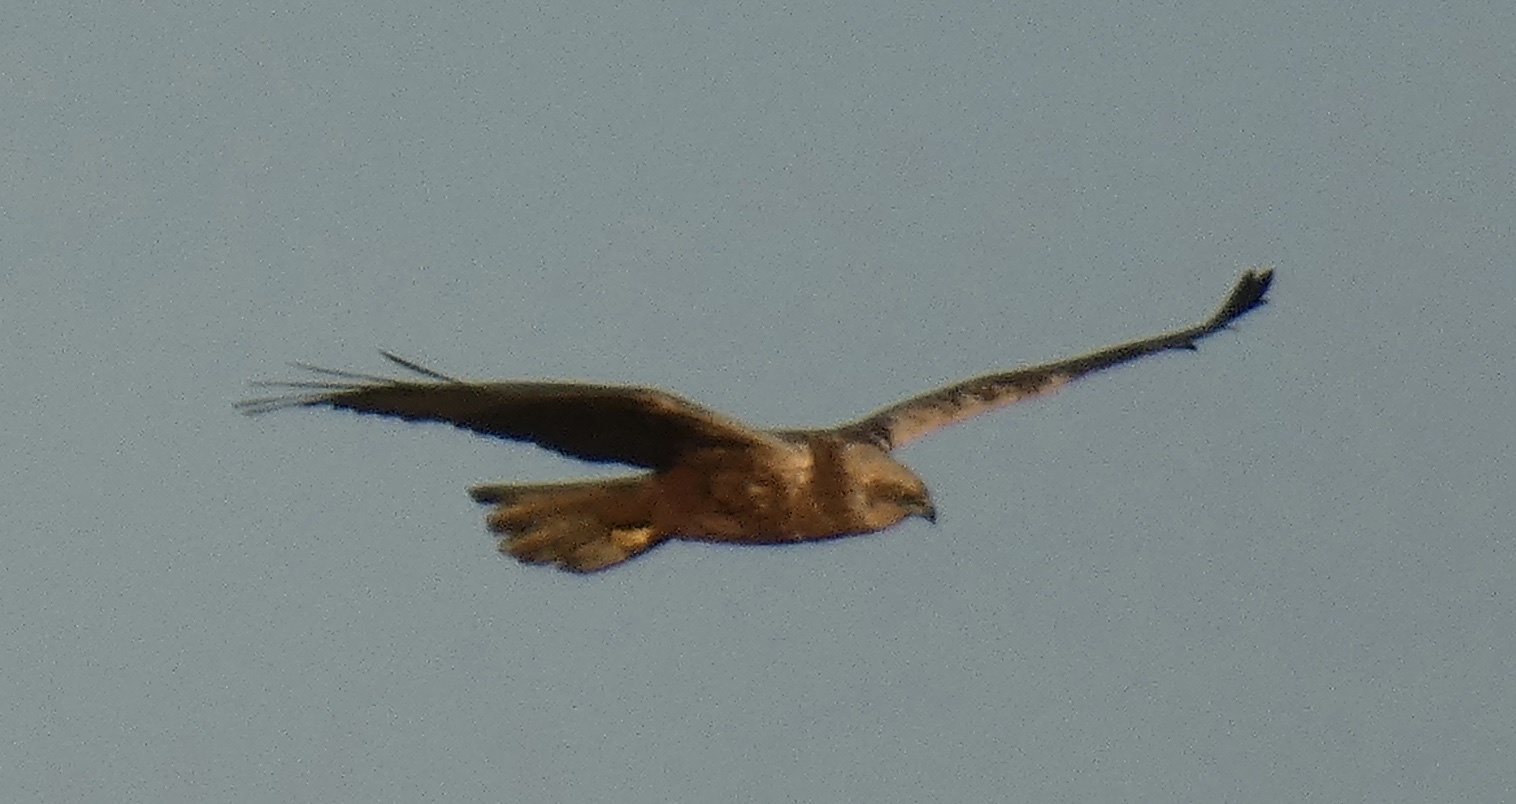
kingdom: Animalia
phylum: Chordata
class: Aves
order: Accipitriformes
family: Accipitridae
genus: Circus
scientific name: Circus aeruginosus
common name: Western marsh harrier
